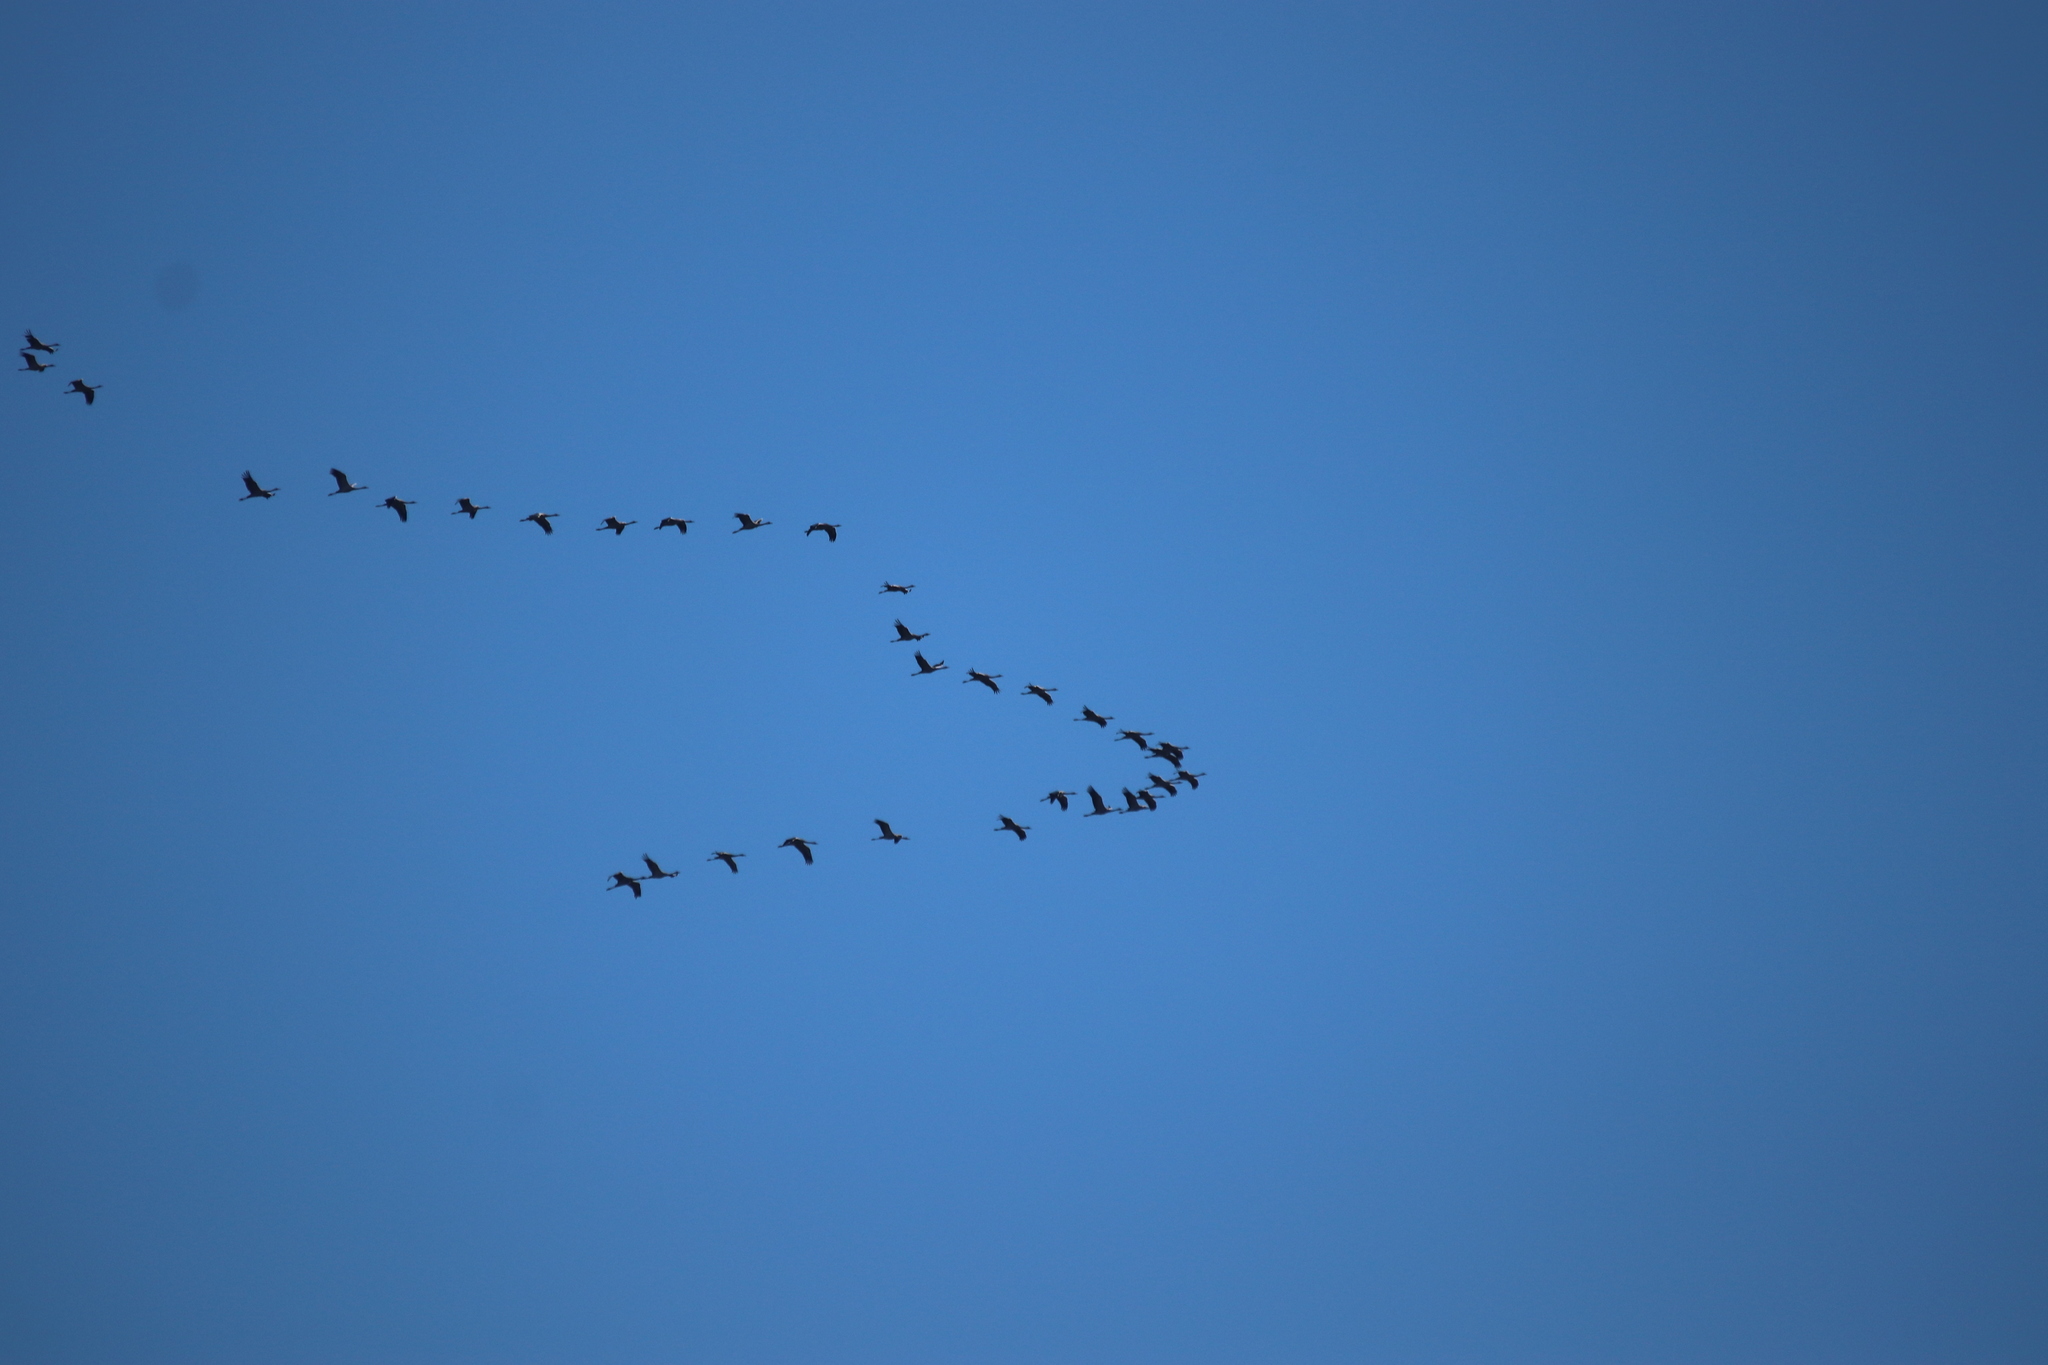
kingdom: Animalia
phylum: Chordata
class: Aves
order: Gruiformes
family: Gruidae
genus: Grus
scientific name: Grus grus
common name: Common crane
